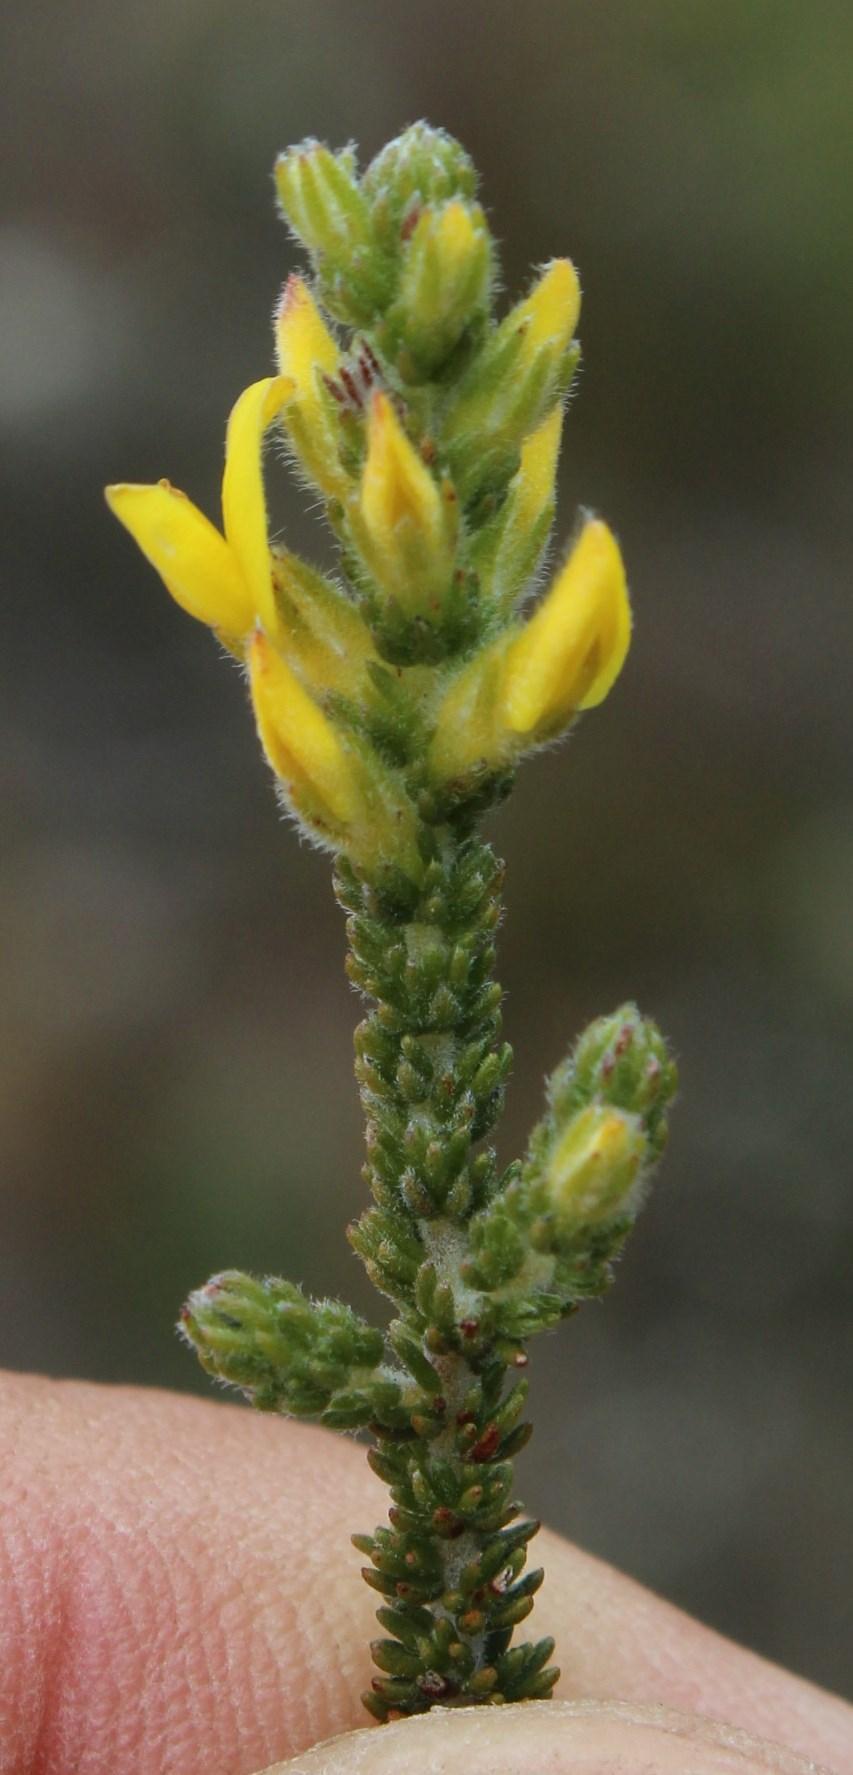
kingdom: Plantae
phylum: Tracheophyta
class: Magnoliopsida
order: Fabales
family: Fabaceae
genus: Aspalathus
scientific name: Aspalathus ericifolia
